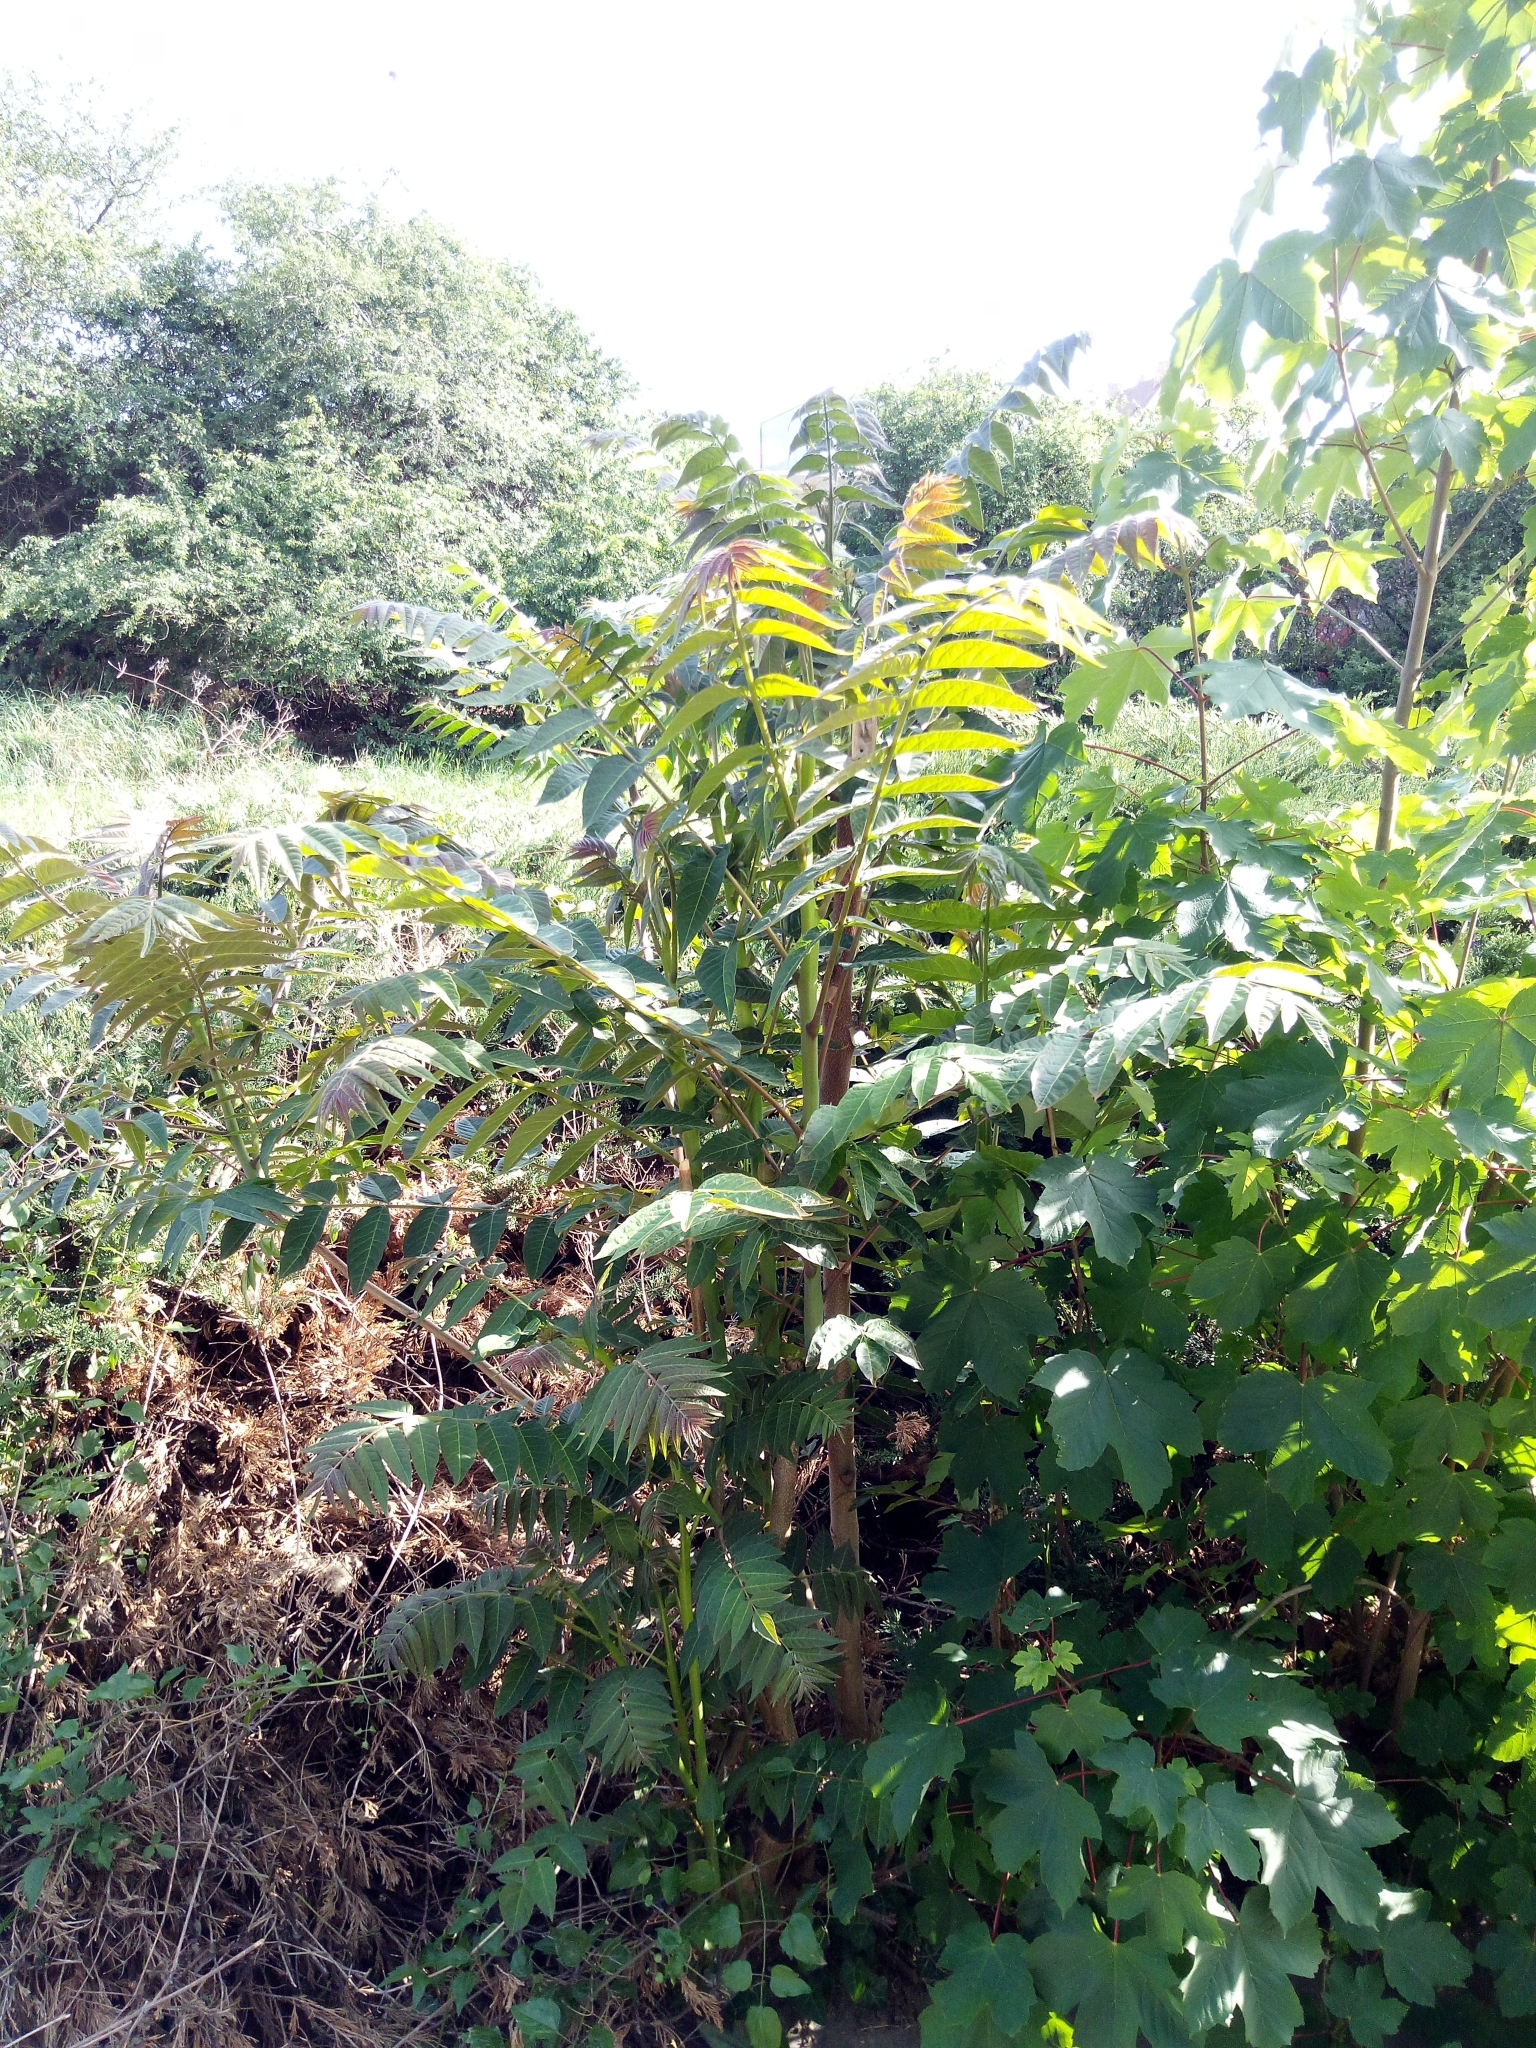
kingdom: Plantae
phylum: Tracheophyta
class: Magnoliopsida
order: Sapindales
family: Simaroubaceae
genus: Ailanthus
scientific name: Ailanthus altissima
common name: Tree-of-heaven
